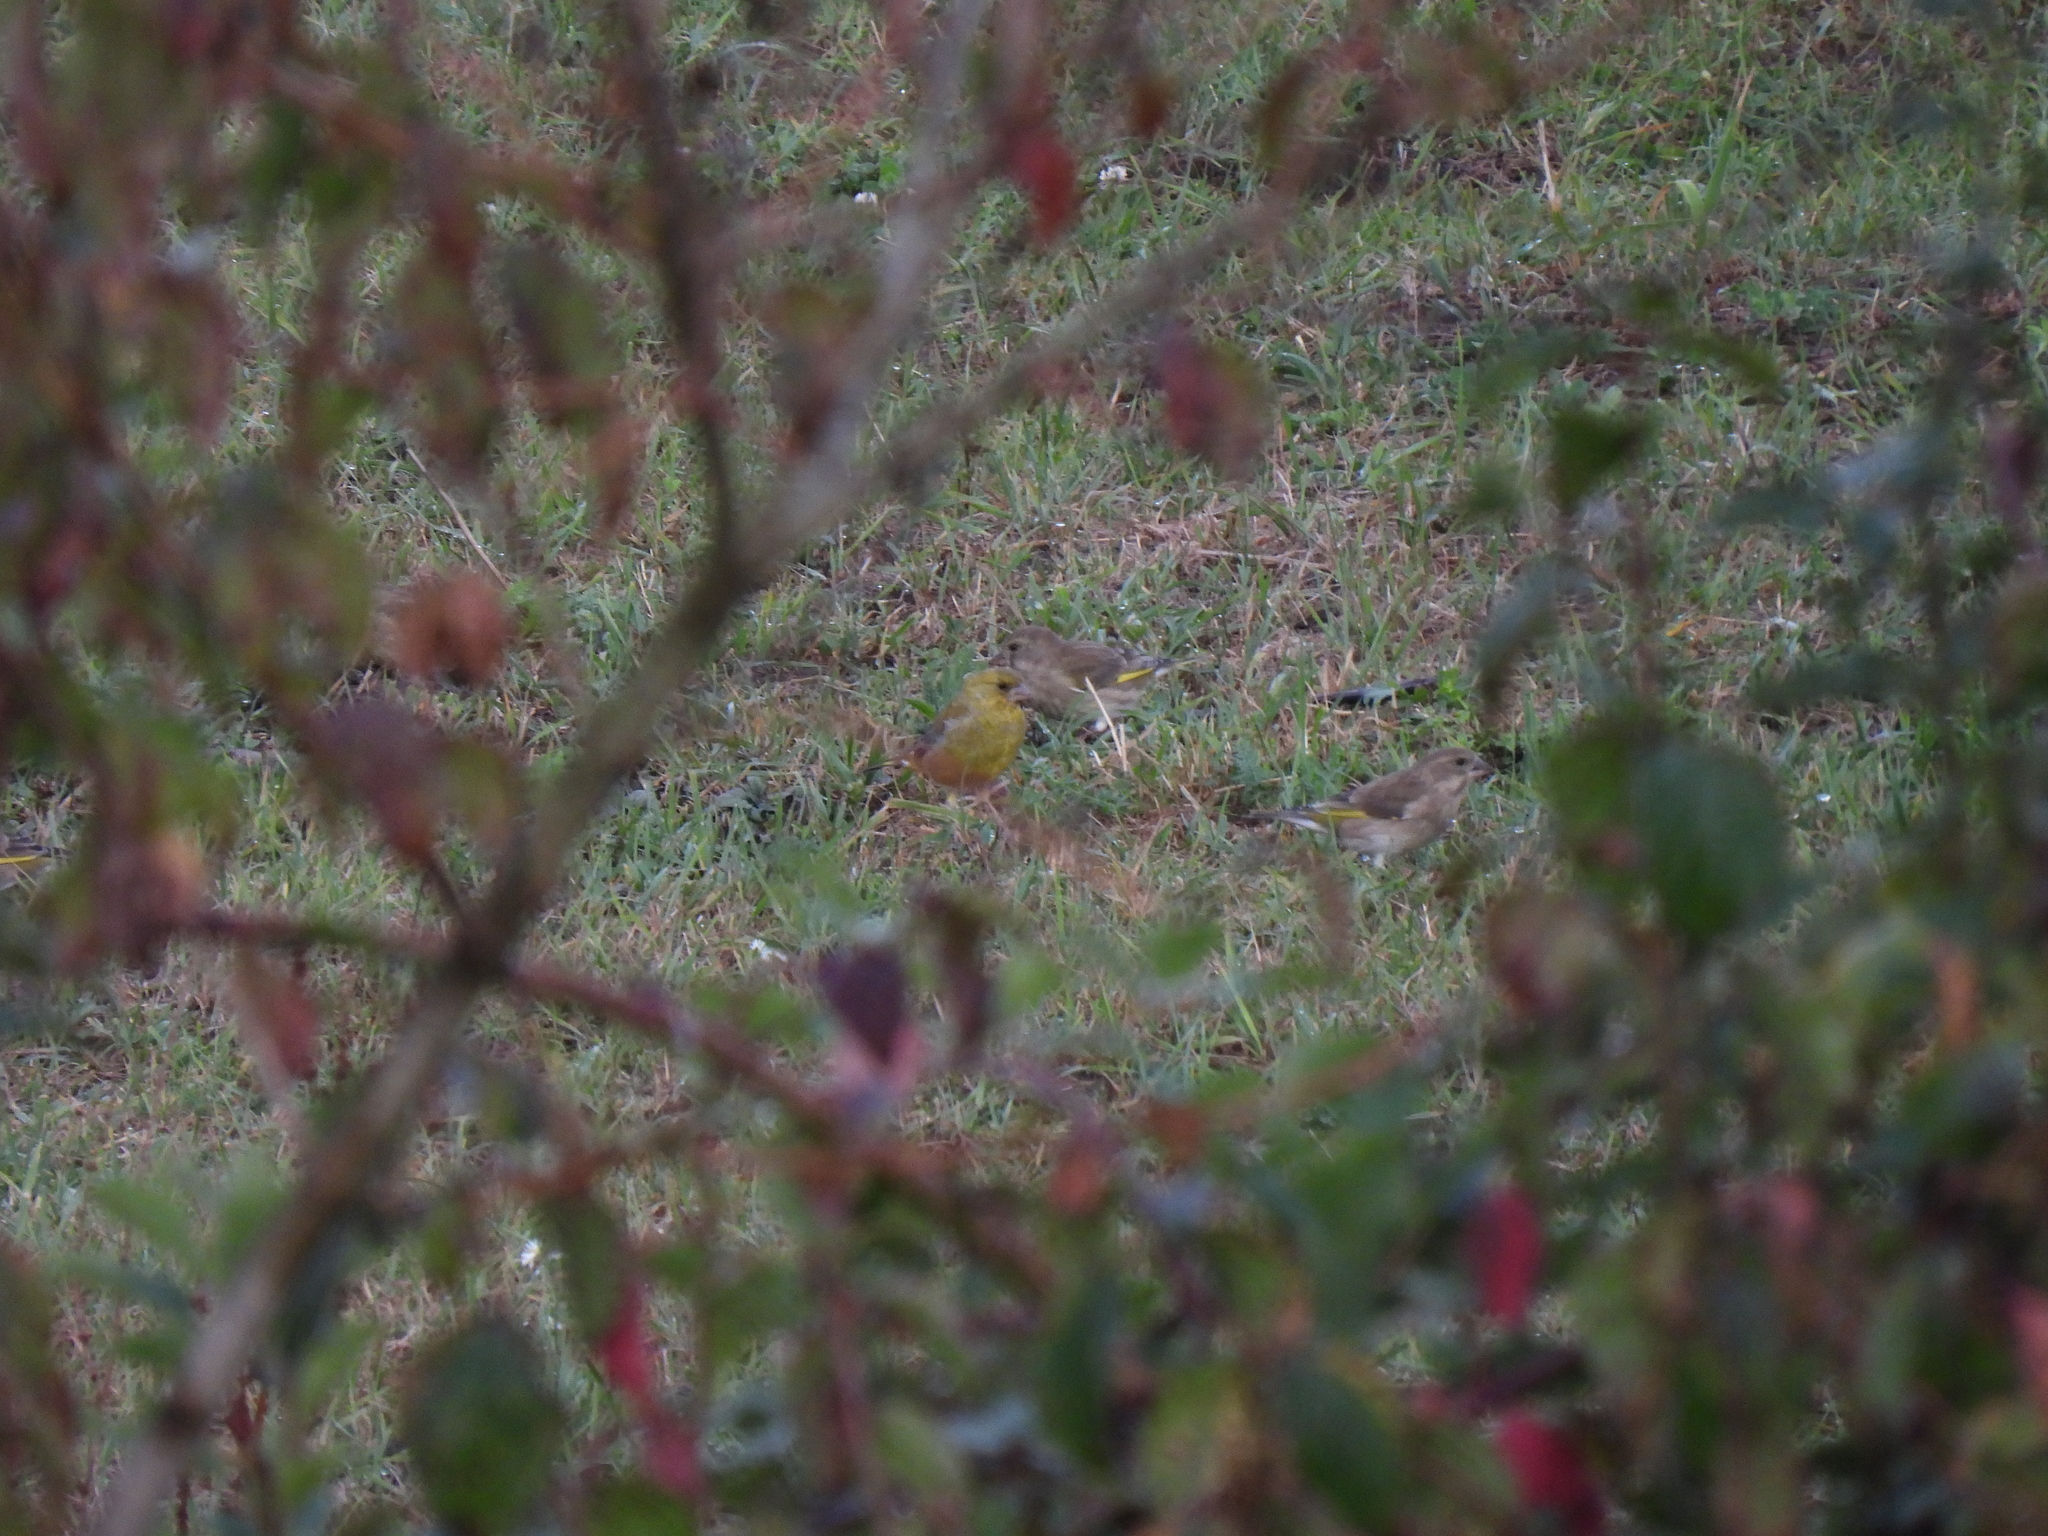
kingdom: Plantae
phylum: Tracheophyta
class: Liliopsida
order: Poales
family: Poaceae
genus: Chloris
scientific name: Chloris chloris
